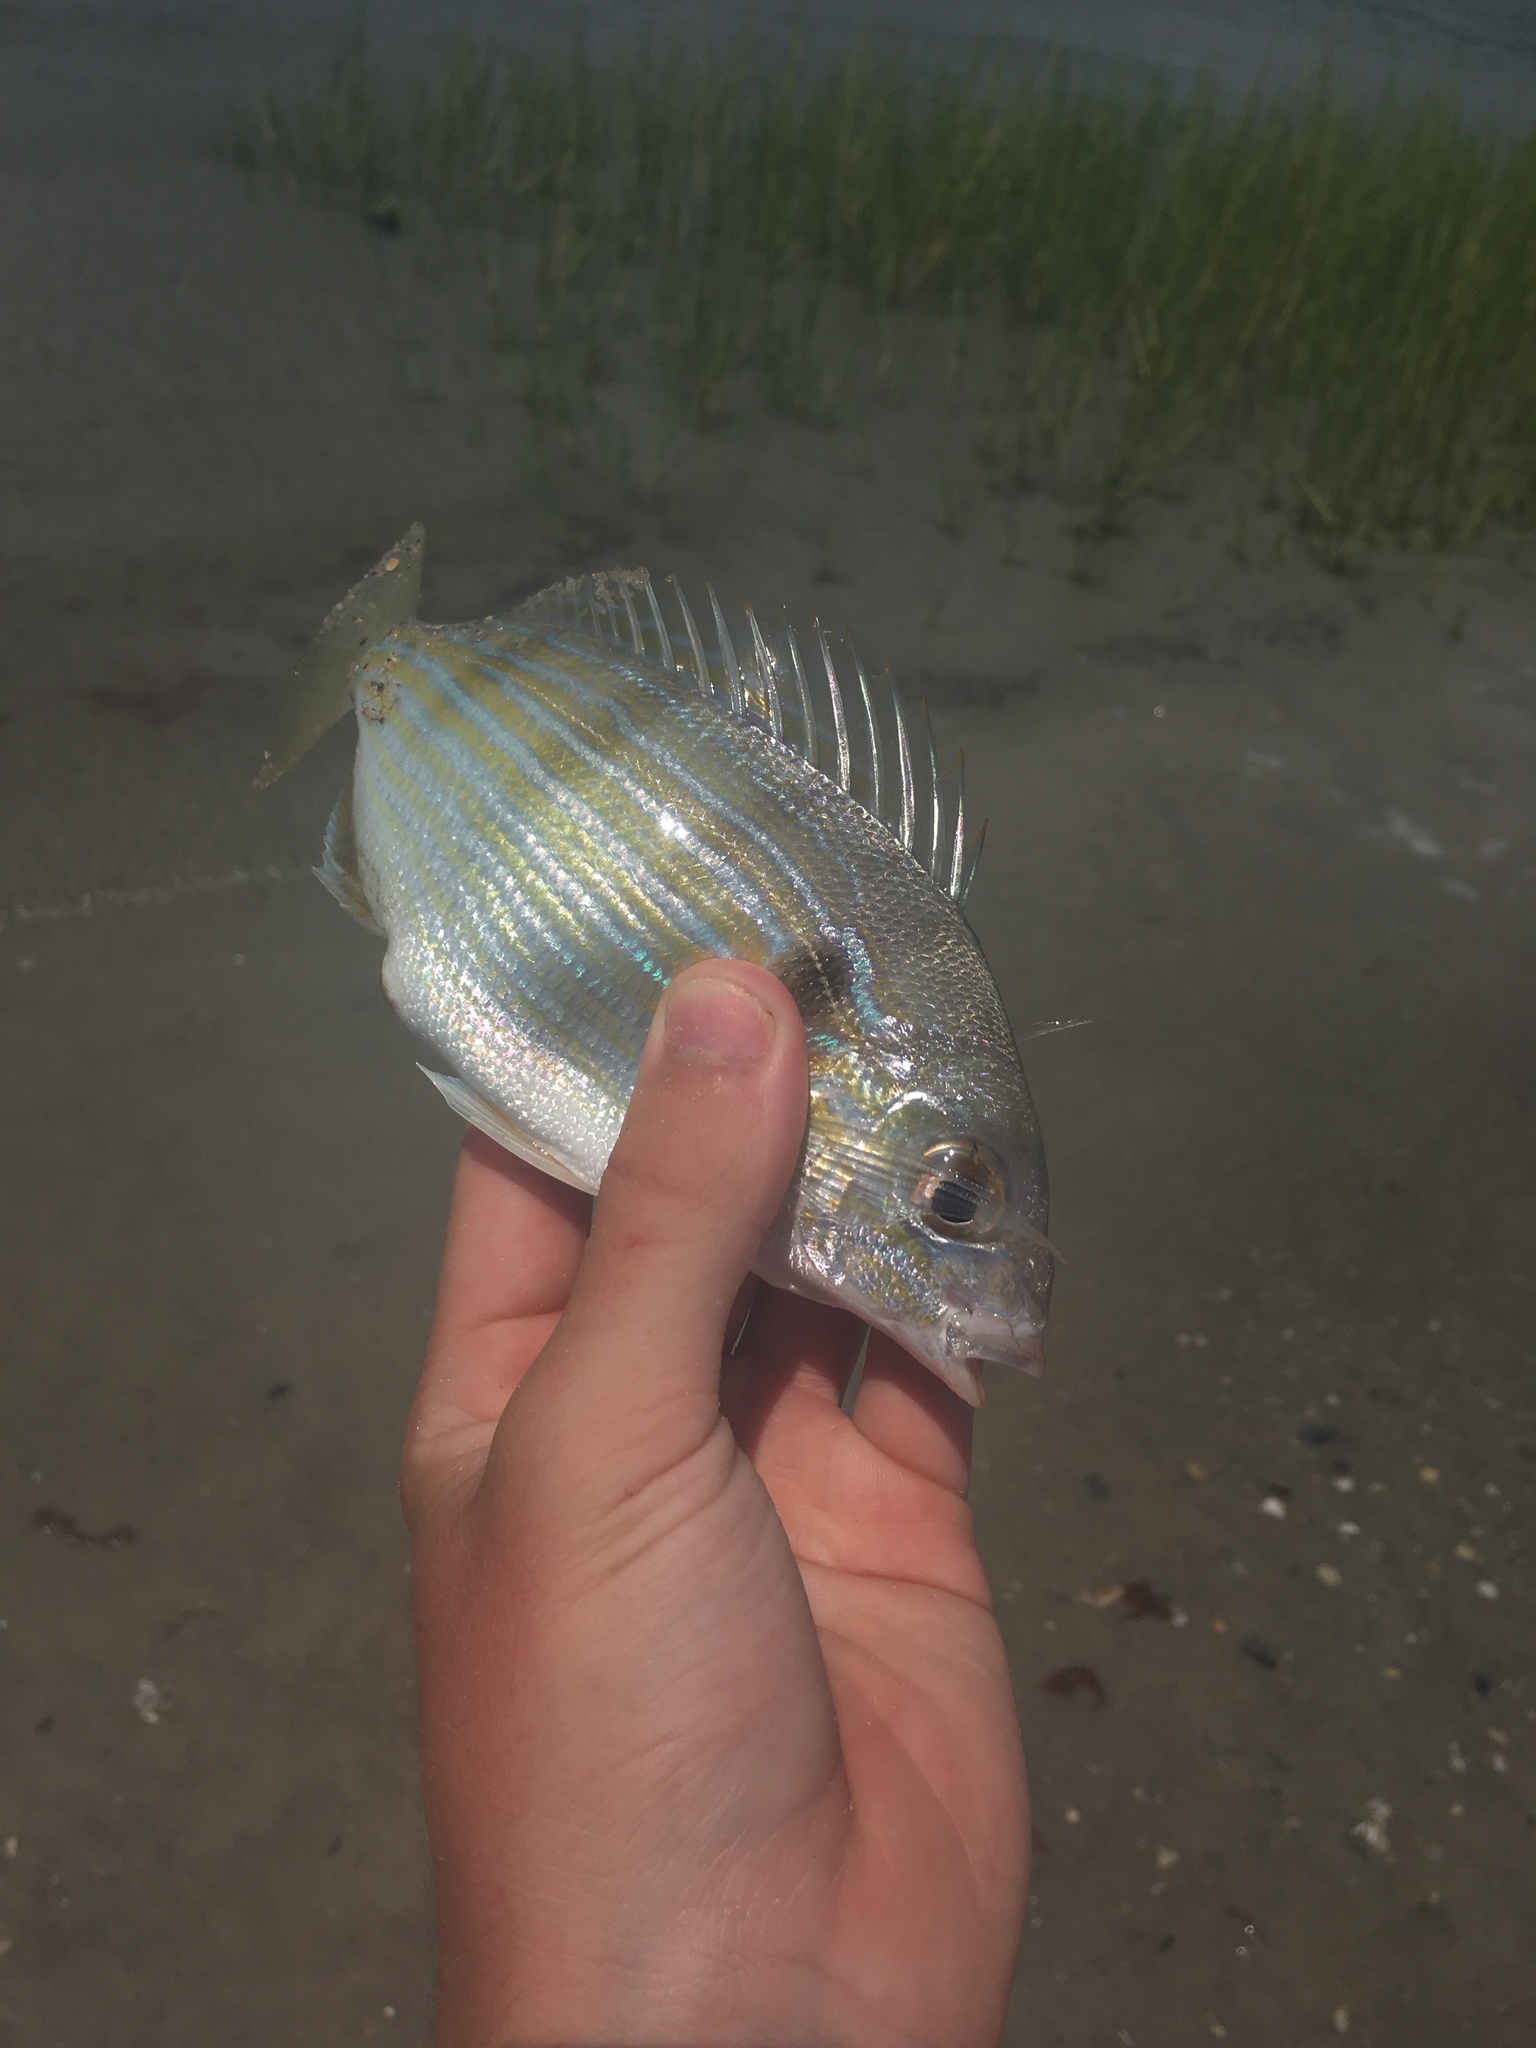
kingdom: Animalia
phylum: Chordata
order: Perciformes
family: Sparidae
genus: Lagodon
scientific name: Lagodon rhomboides
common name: Pinfish
